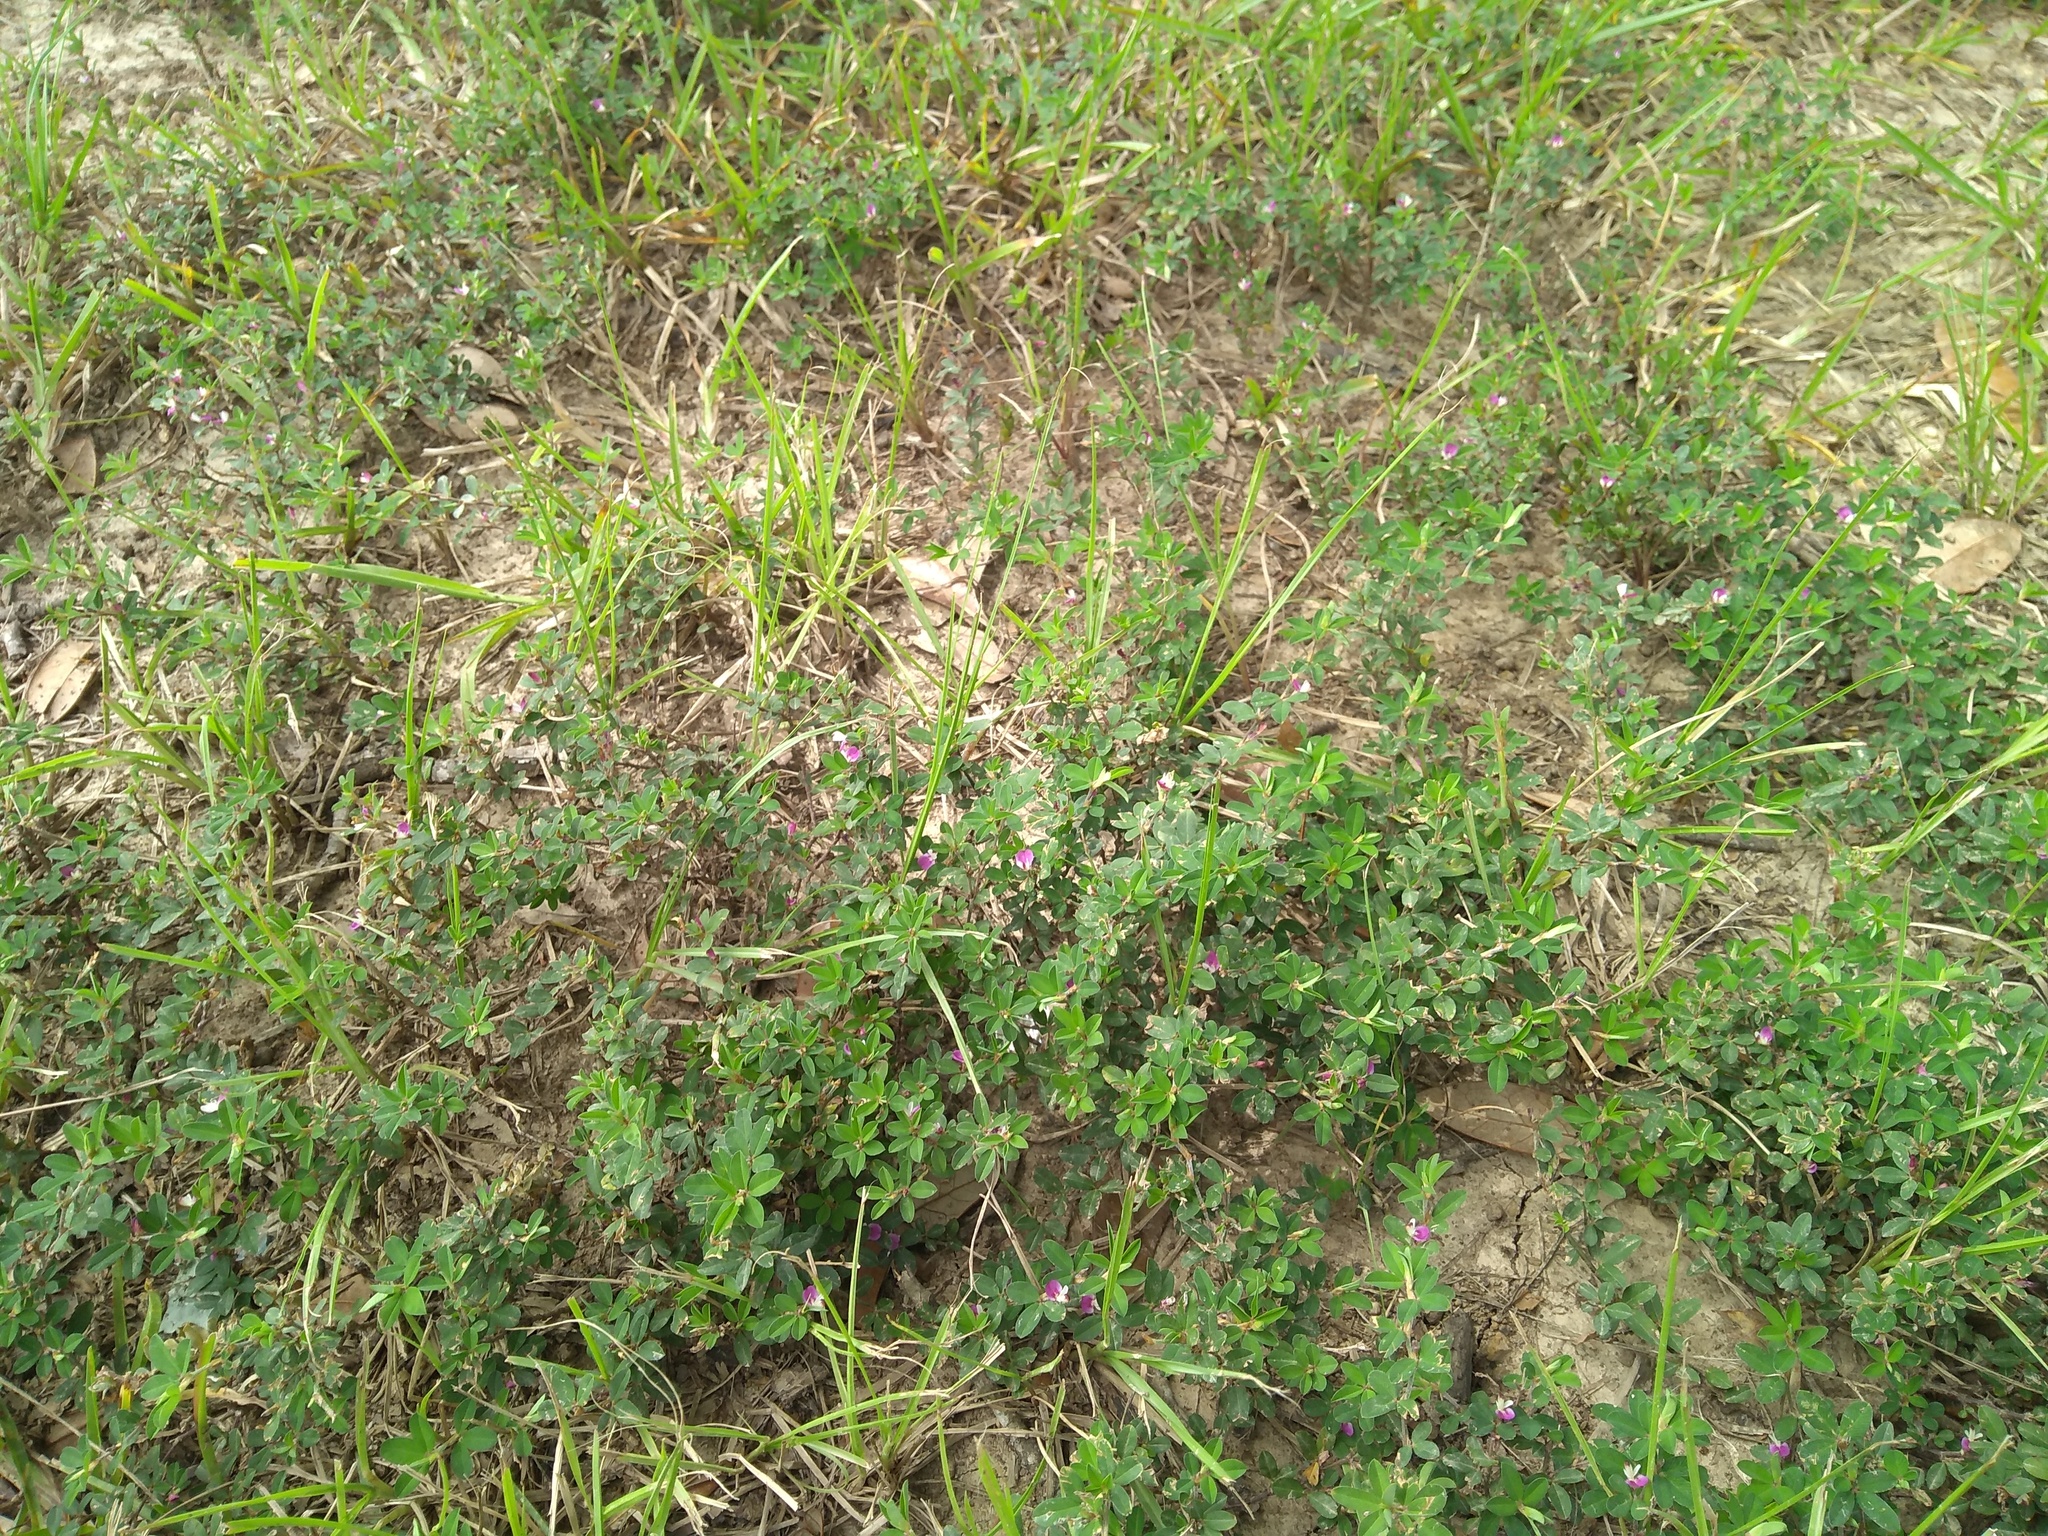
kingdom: Plantae
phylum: Tracheophyta
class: Magnoliopsida
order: Fabales
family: Fabaceae
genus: Kummerowia
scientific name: Kummerowia striata
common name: Japanese clover
